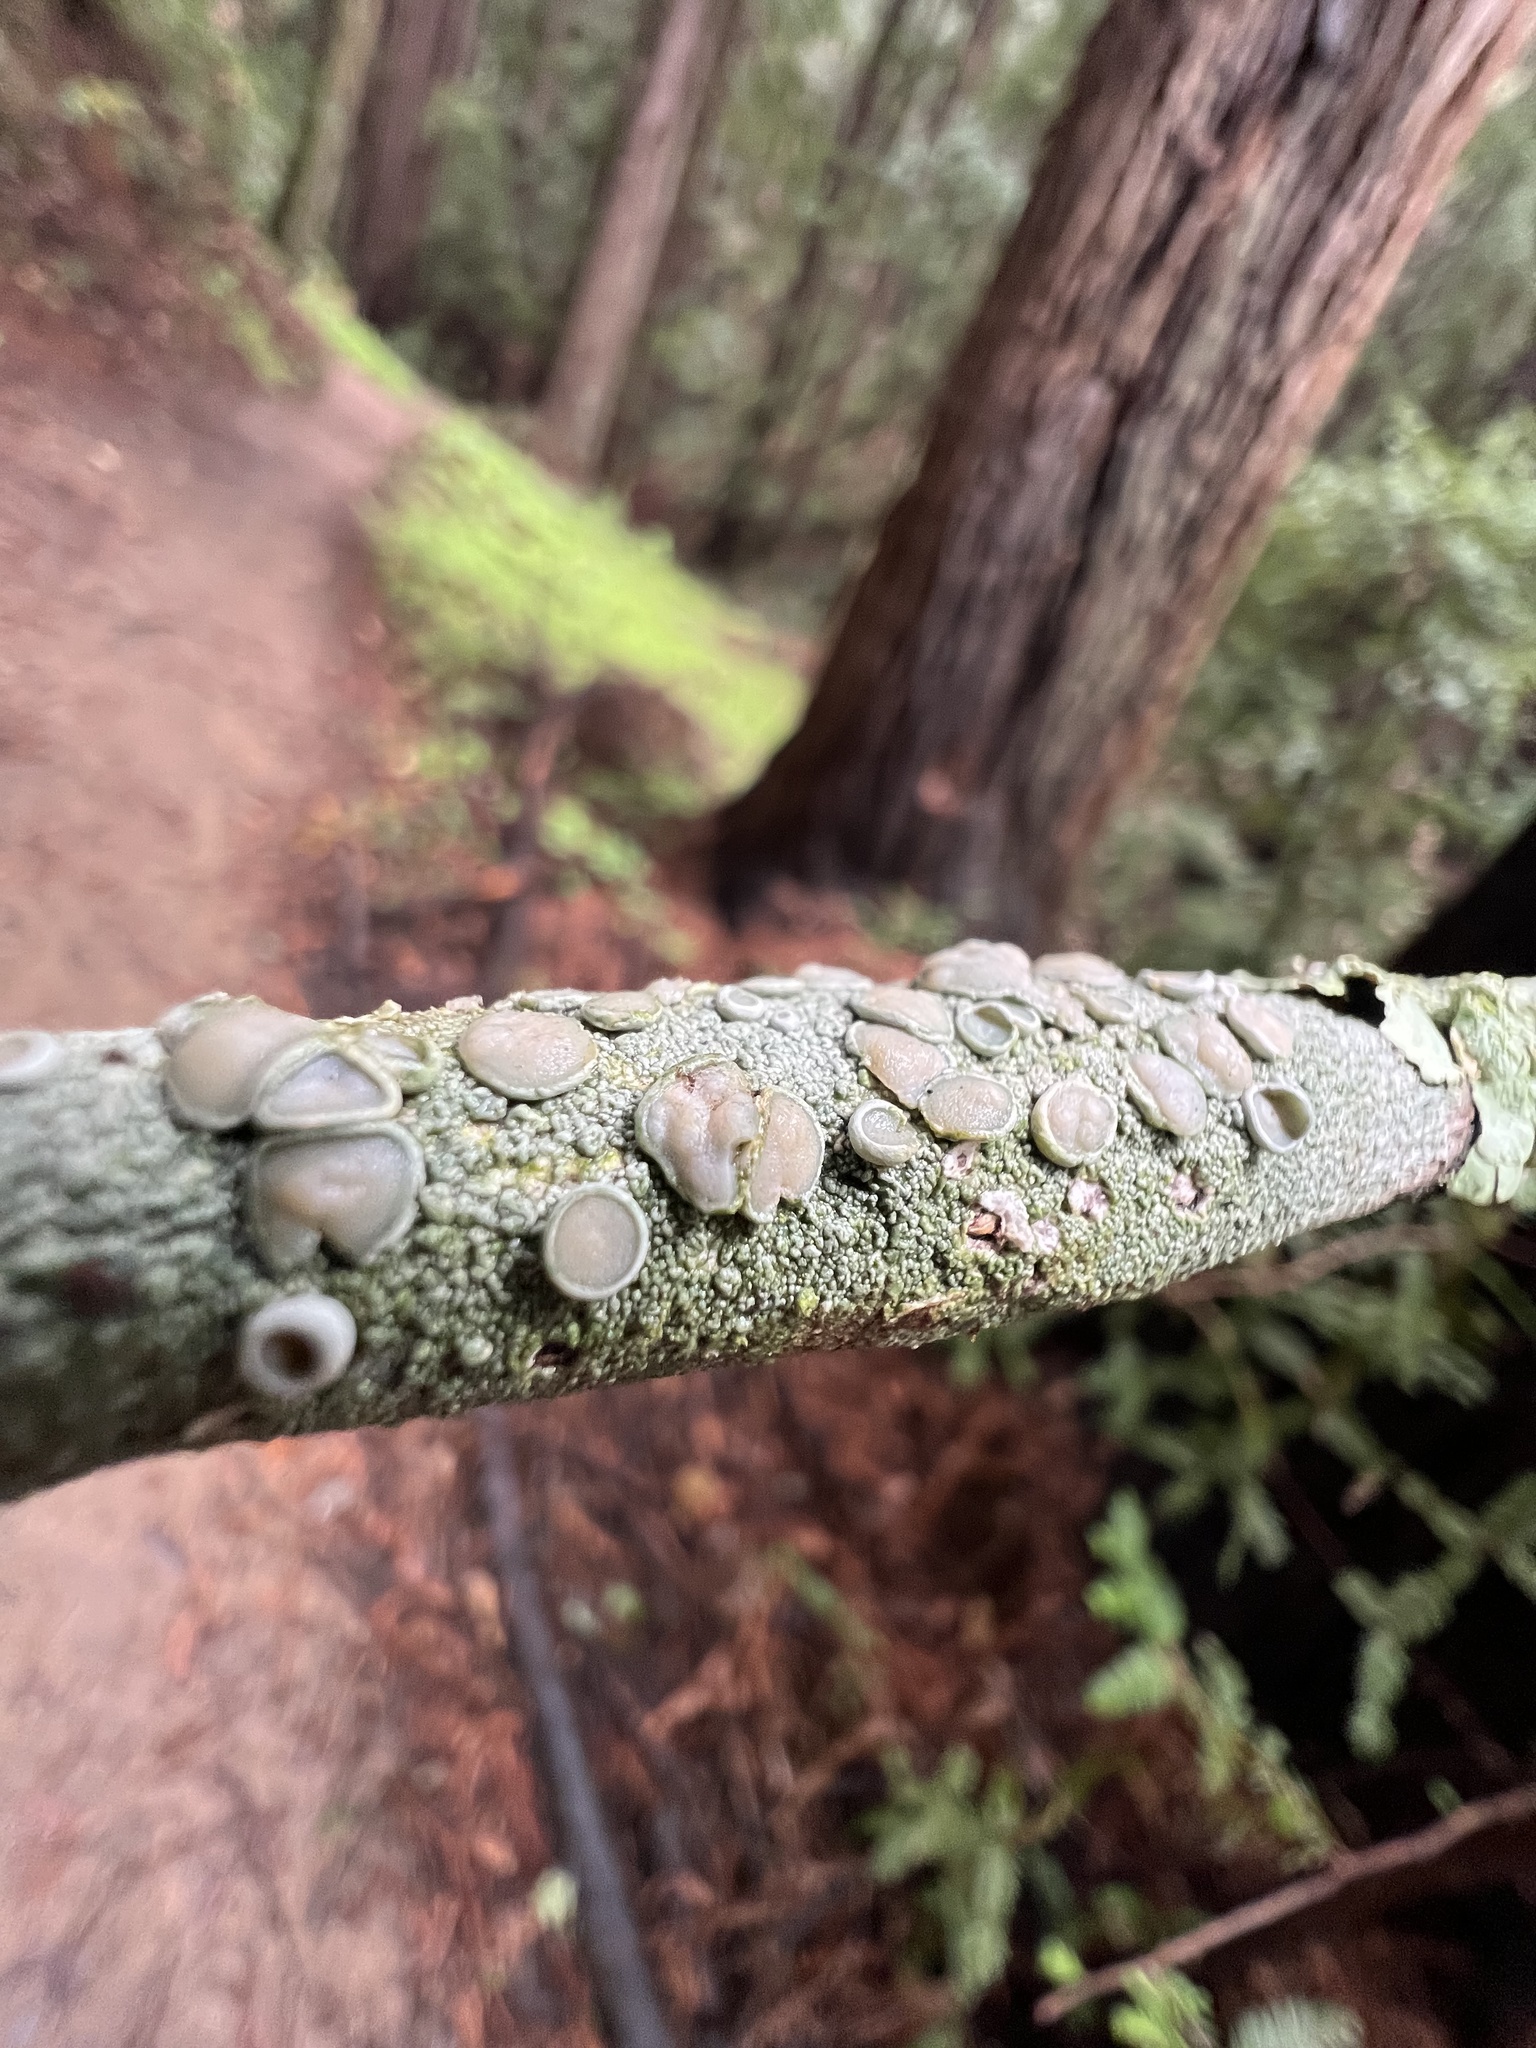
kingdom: Fungi
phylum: Ascomycota
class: Lecanoromycetes
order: Lecanorales
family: Lecanoraceae
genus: Lecanora
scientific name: Lecanora caesiorubella
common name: Frosted rim-lichen
